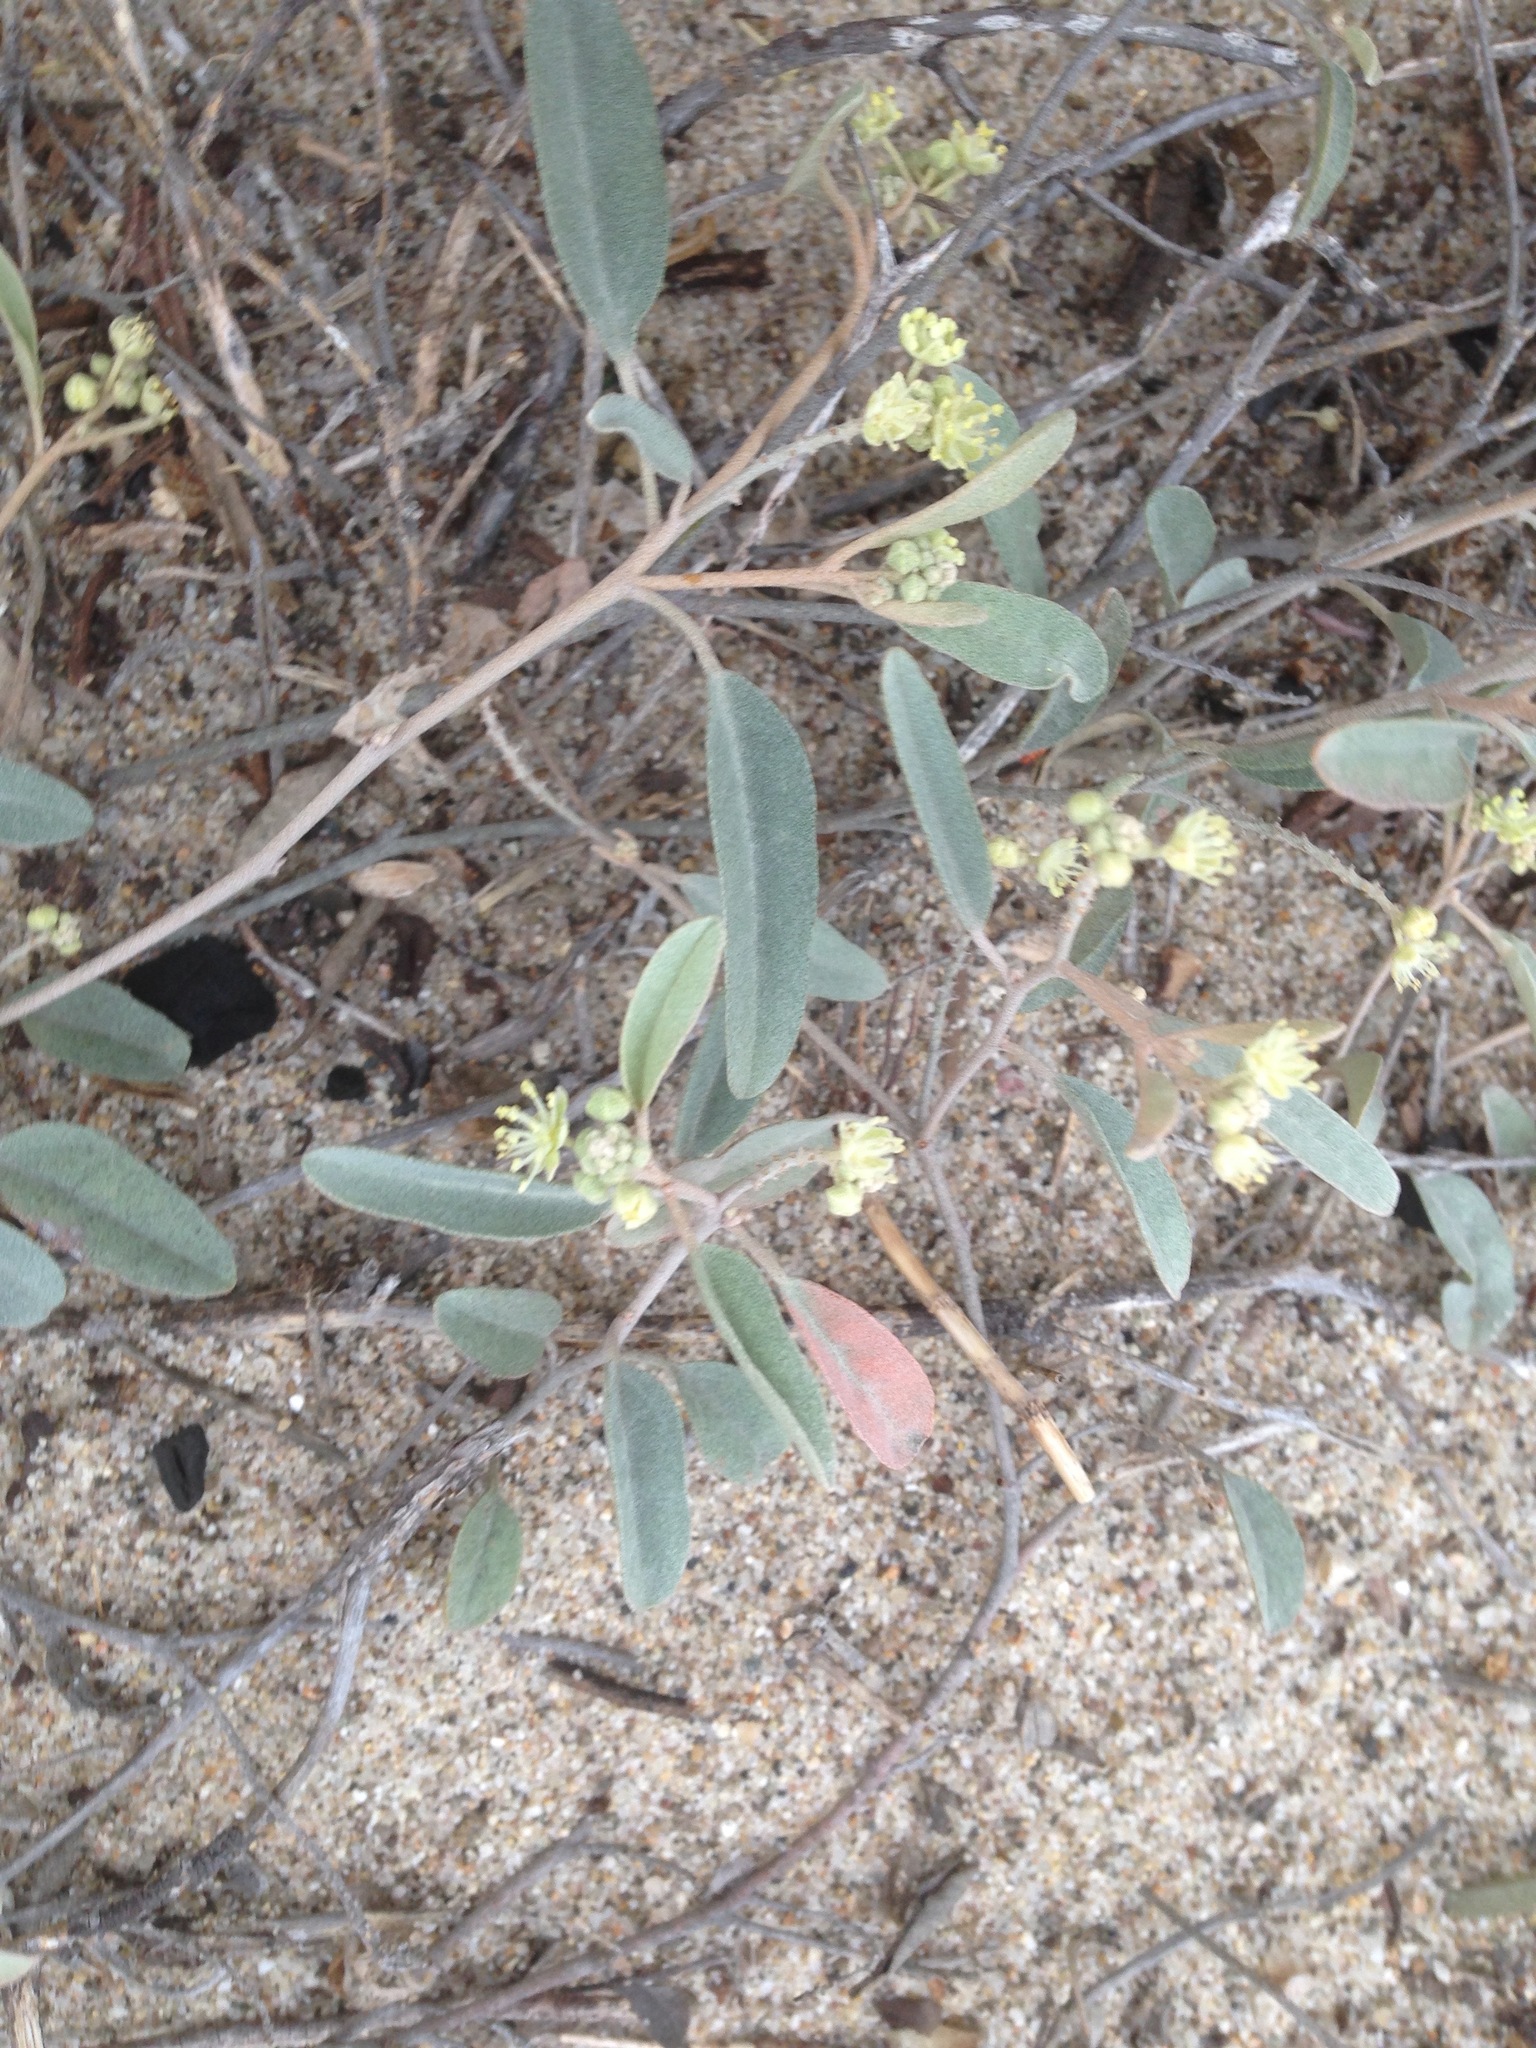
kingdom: Plantae
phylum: Tracheophyta
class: Magnoliopsida
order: Malpighiales
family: Euphorbiaceae
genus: Croton
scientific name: Croton californicus
